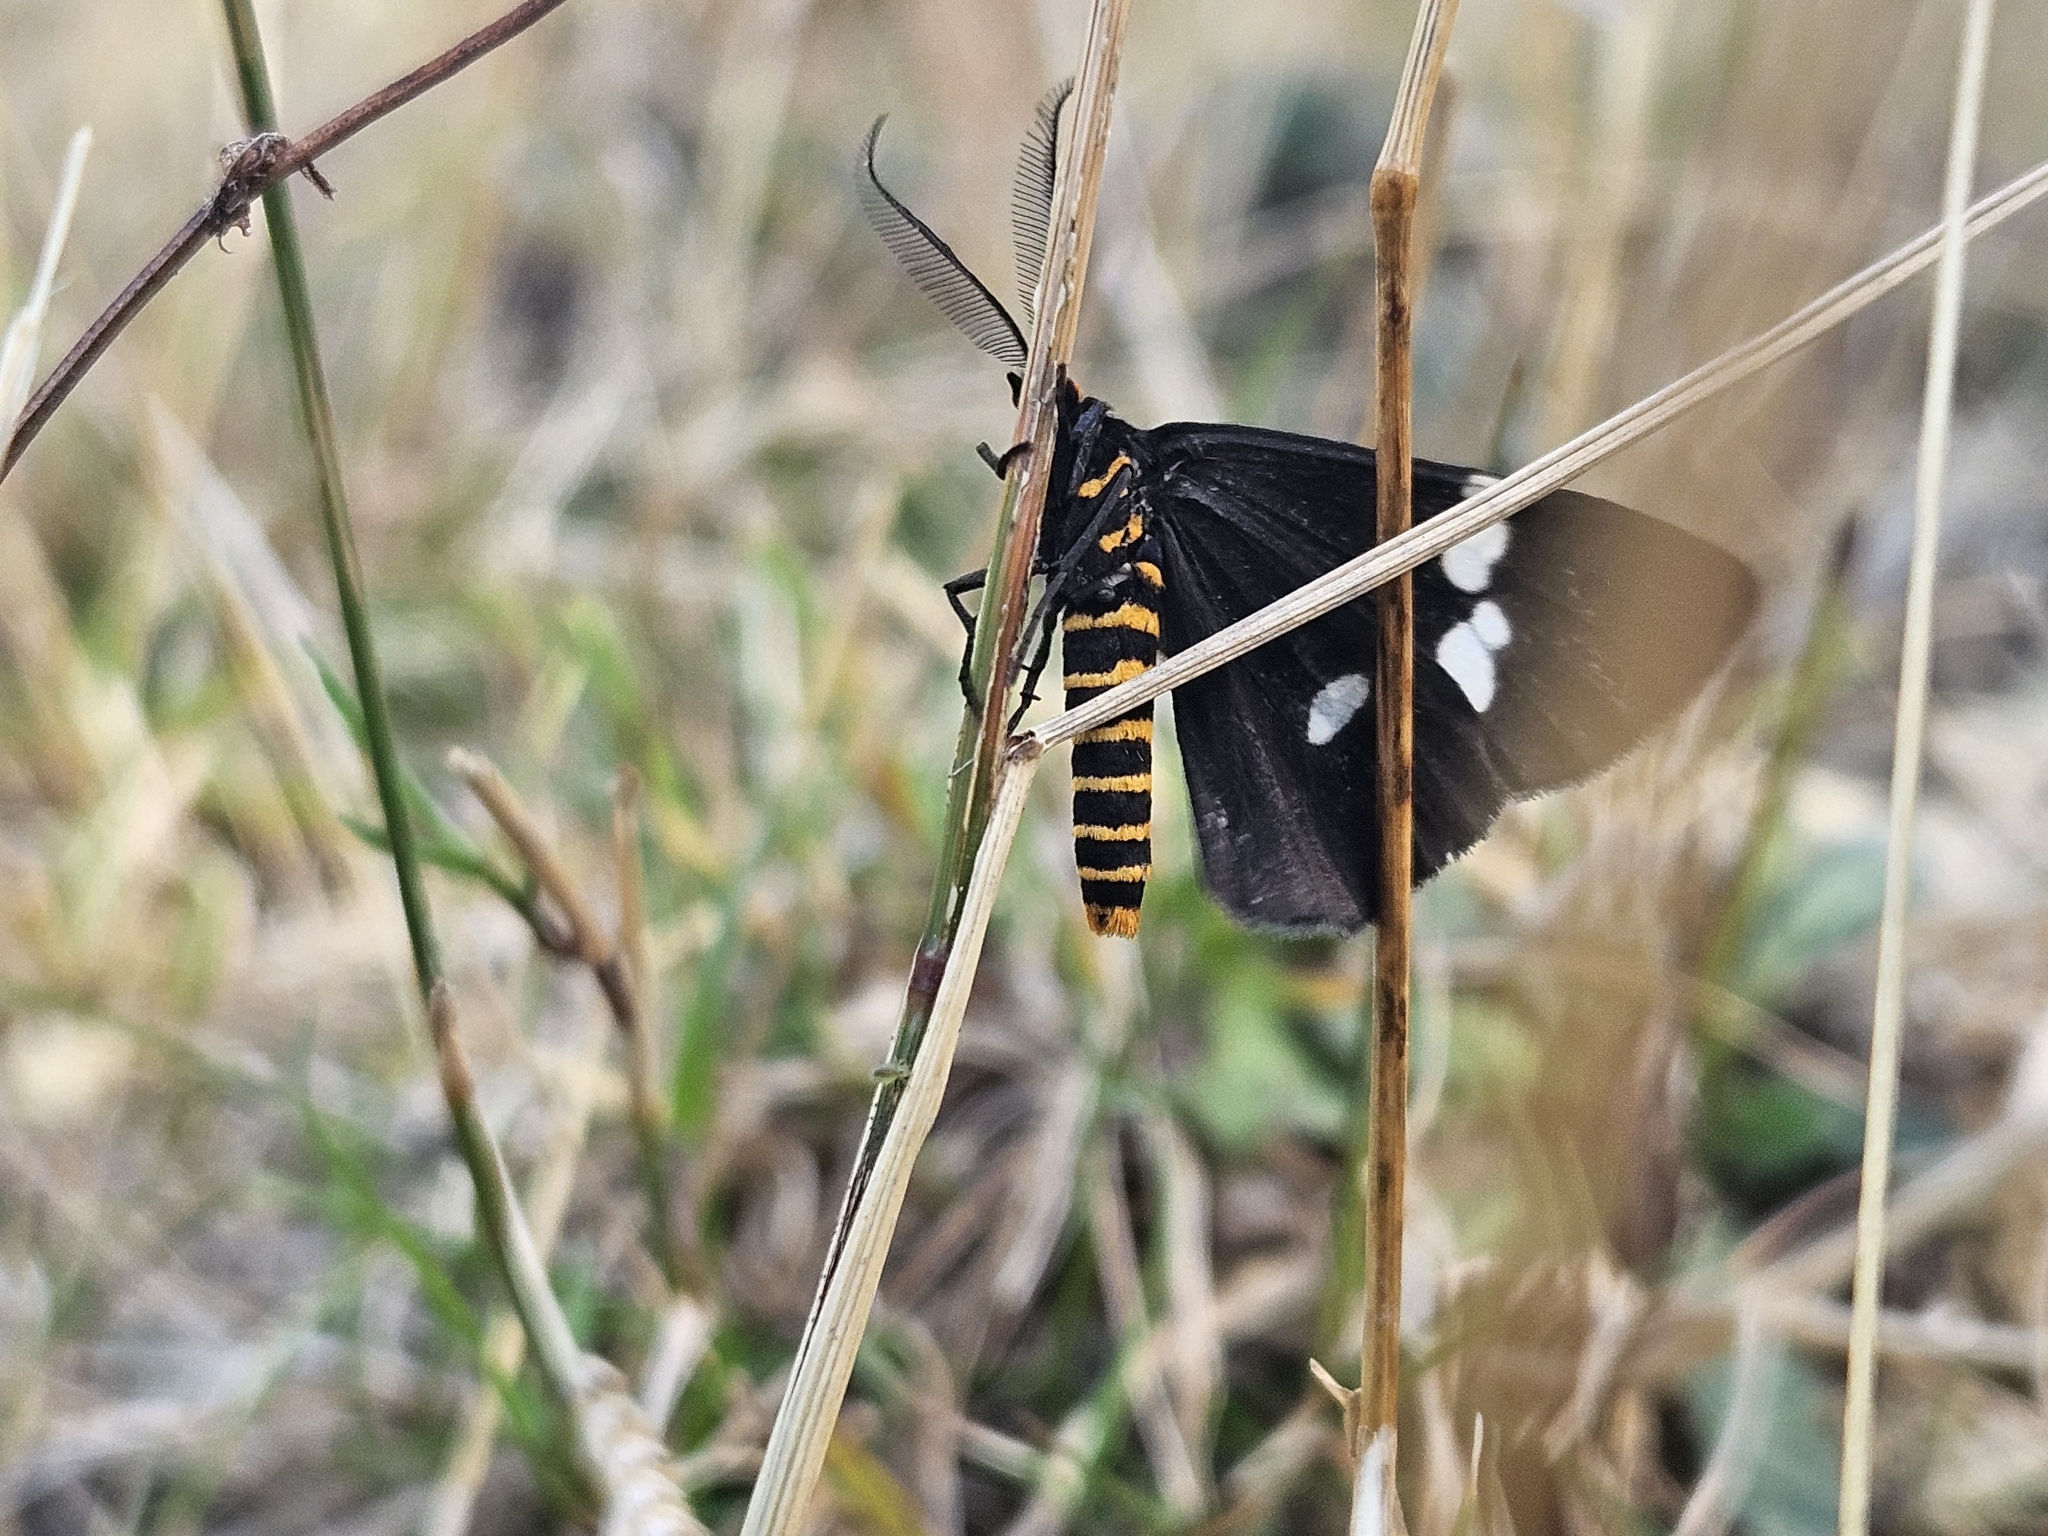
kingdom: Animalia
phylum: Arthropoda
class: Insecta
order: Lepidoptera
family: Erebidae
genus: Nyctemera
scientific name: Nyctemera annulatum
